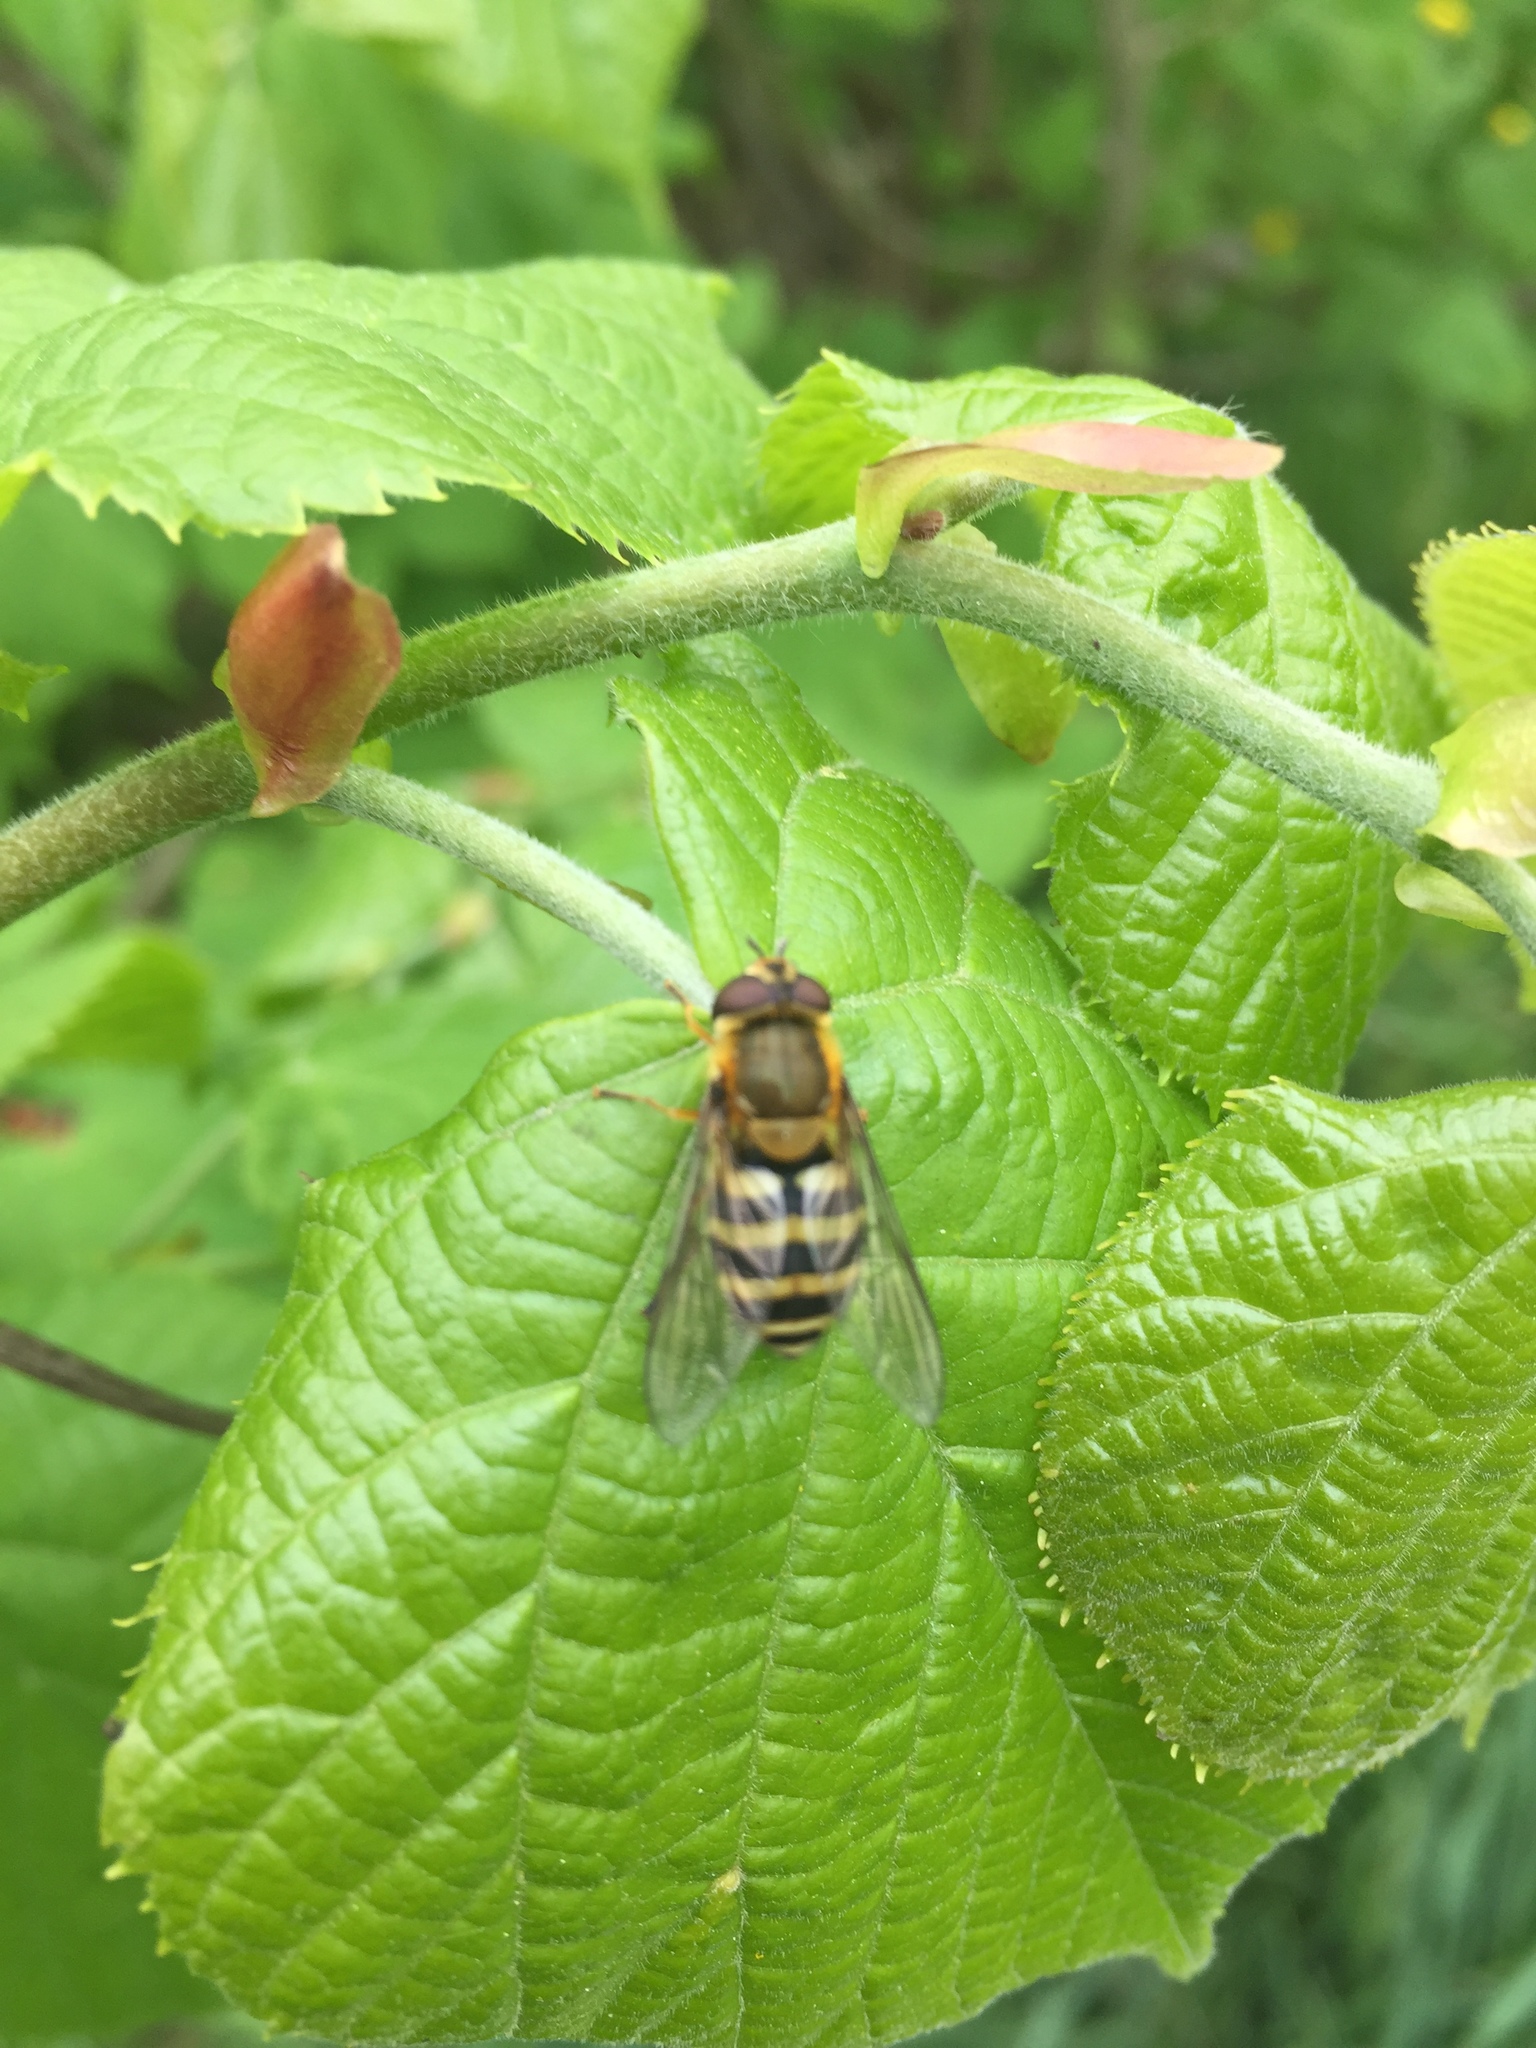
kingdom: Animalia
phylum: Arthropoda
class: Insecta
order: Diptera
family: Syrphidae
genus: Syrphus
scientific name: Syrphus
